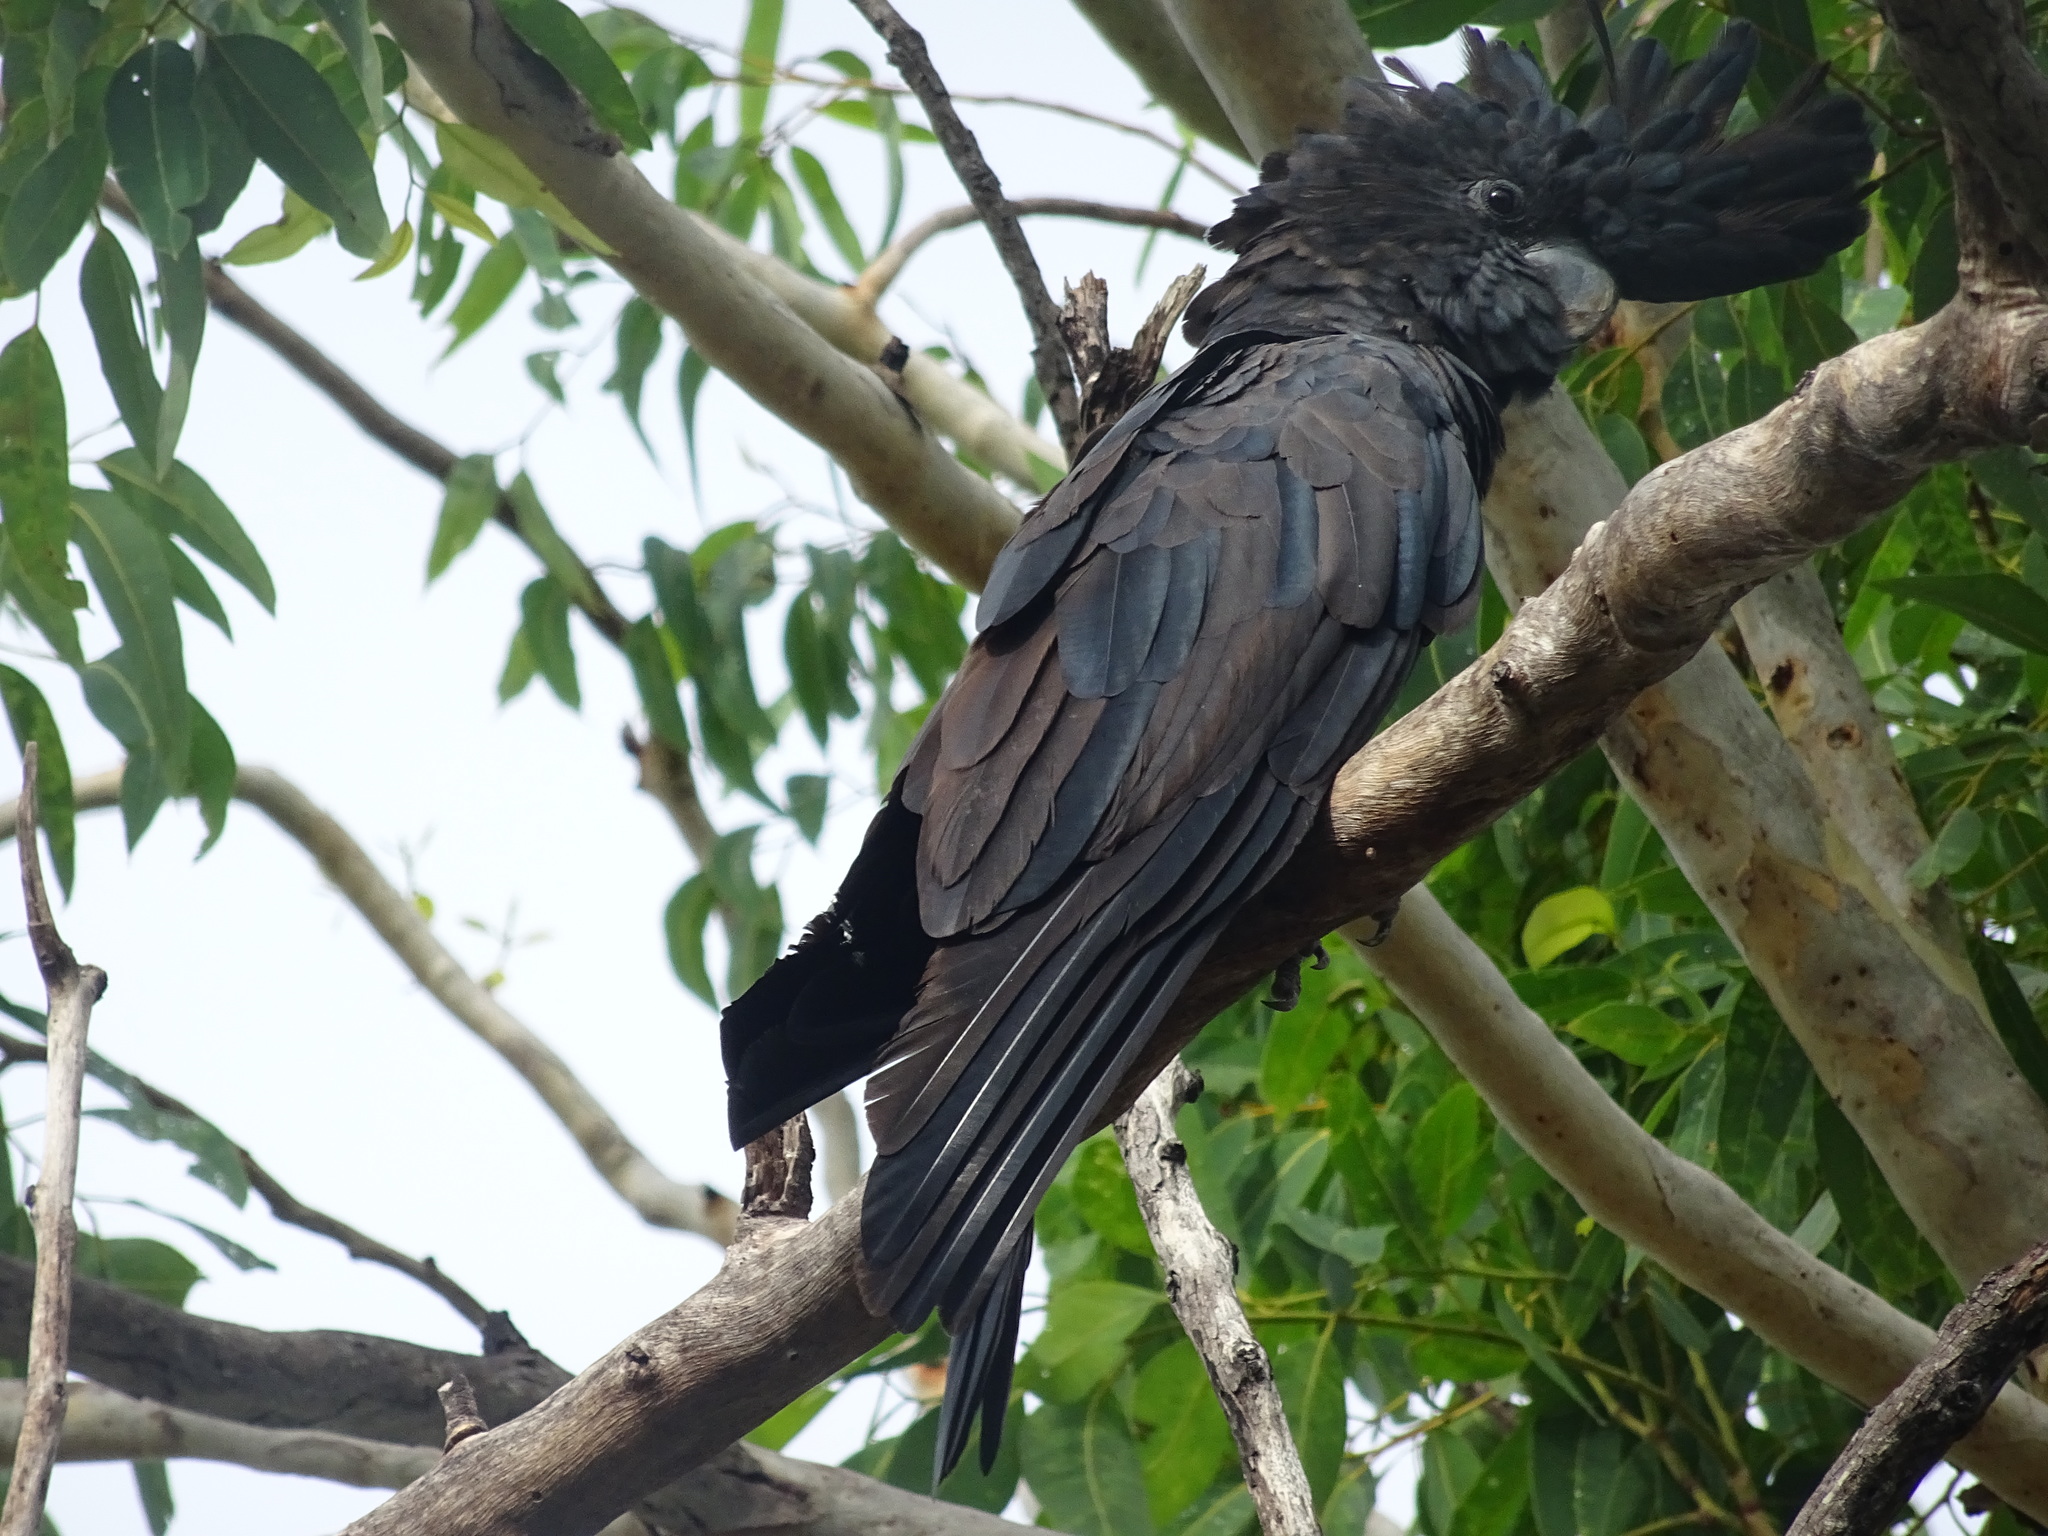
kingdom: Animalia
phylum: Chordata
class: Aves
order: Psittaciformes
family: Psittacidae
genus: Calyptorhynchus
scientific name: Calyptorhynchus banksii
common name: Red-tailed black cockatoo
